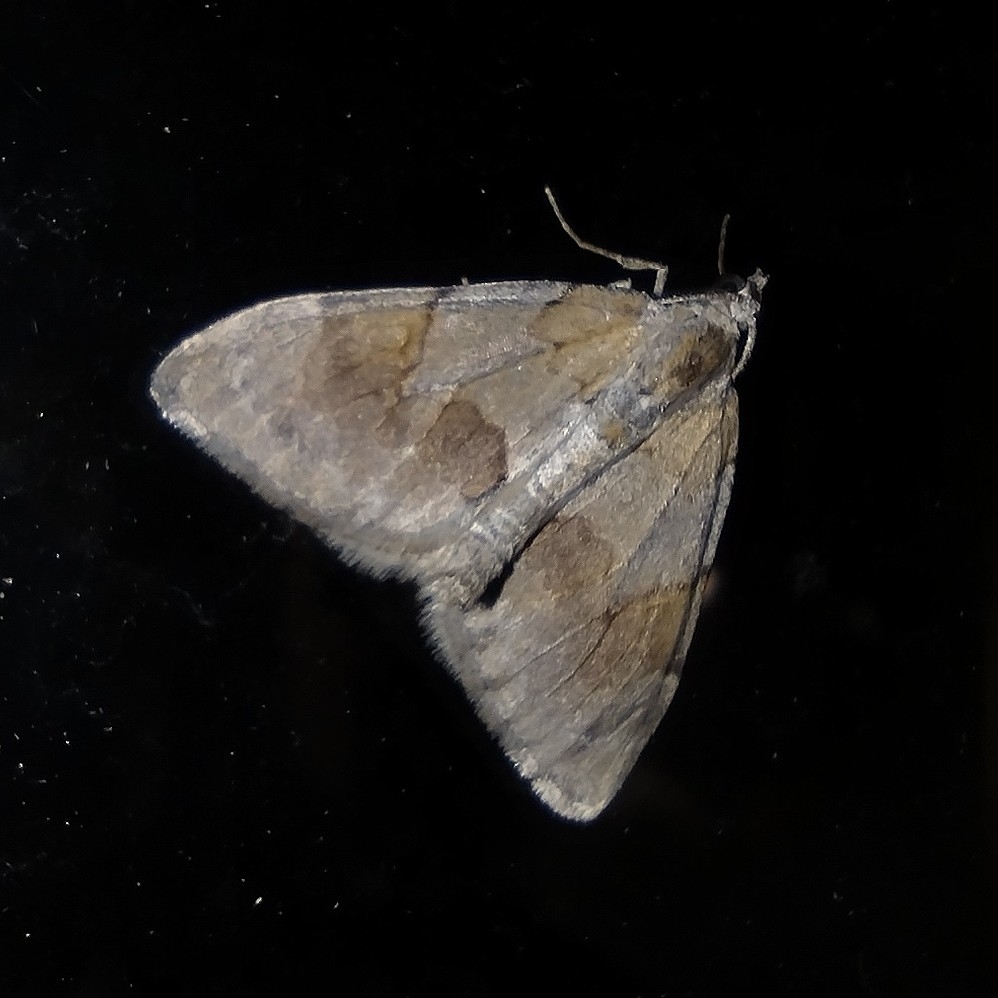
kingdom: Animalia
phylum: Arthropoda
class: Insecta
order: Lepidoptera
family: Geometridae
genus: Pennithera
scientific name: Pennithera firmata
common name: Pine carpet
